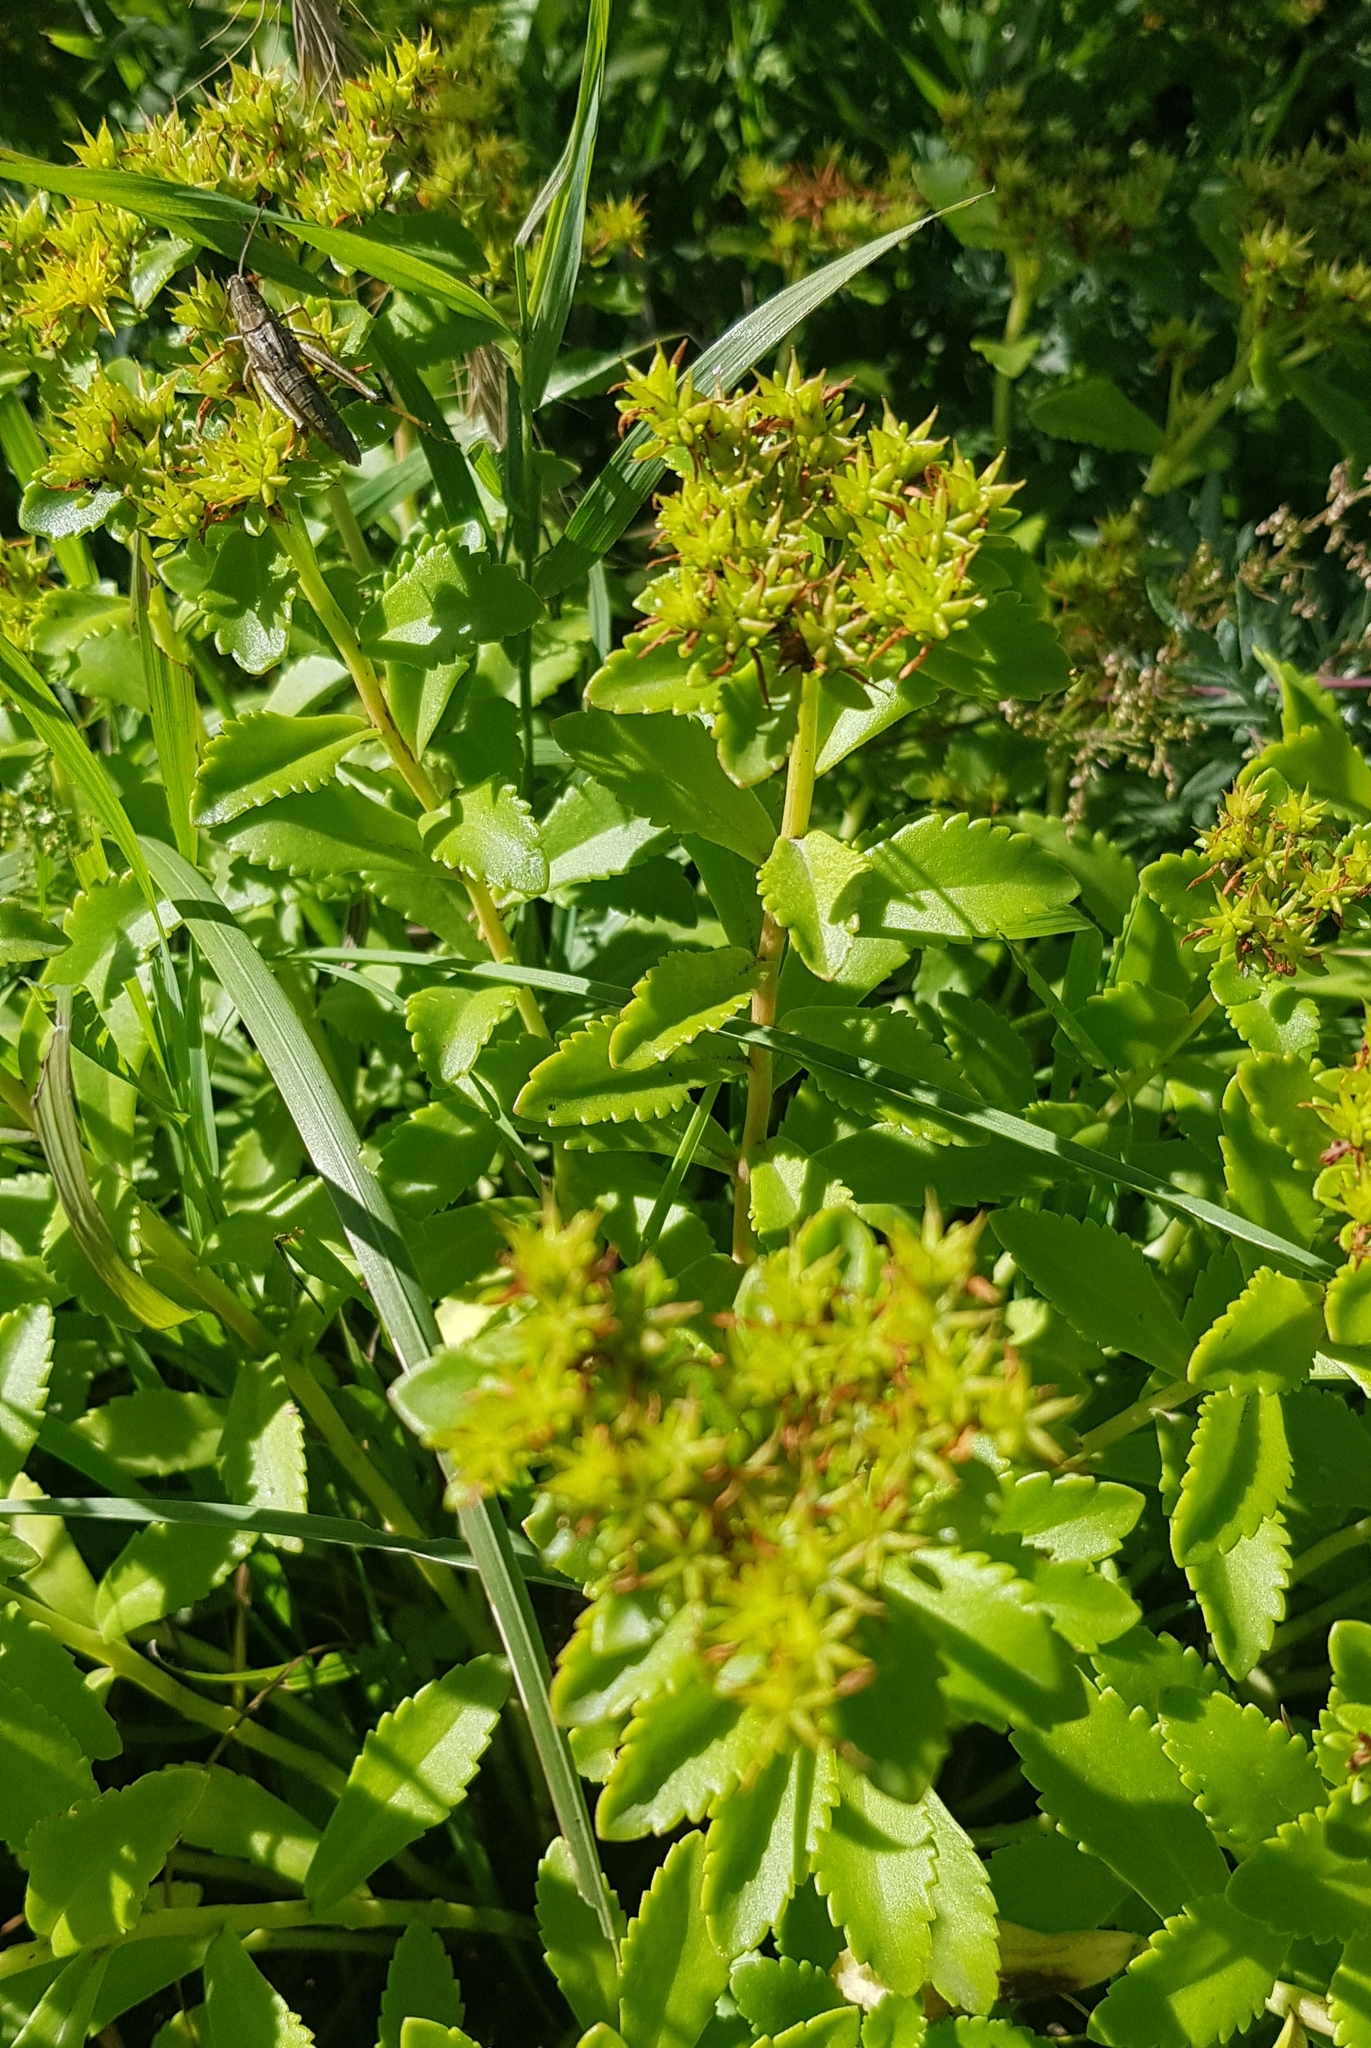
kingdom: Plantae
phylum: Tracheophyta
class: Magnoliopsida
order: Saxifragales
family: Crassulaceae
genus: Phedimus
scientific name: Phedimus aizoon
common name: Orpin aizoon
